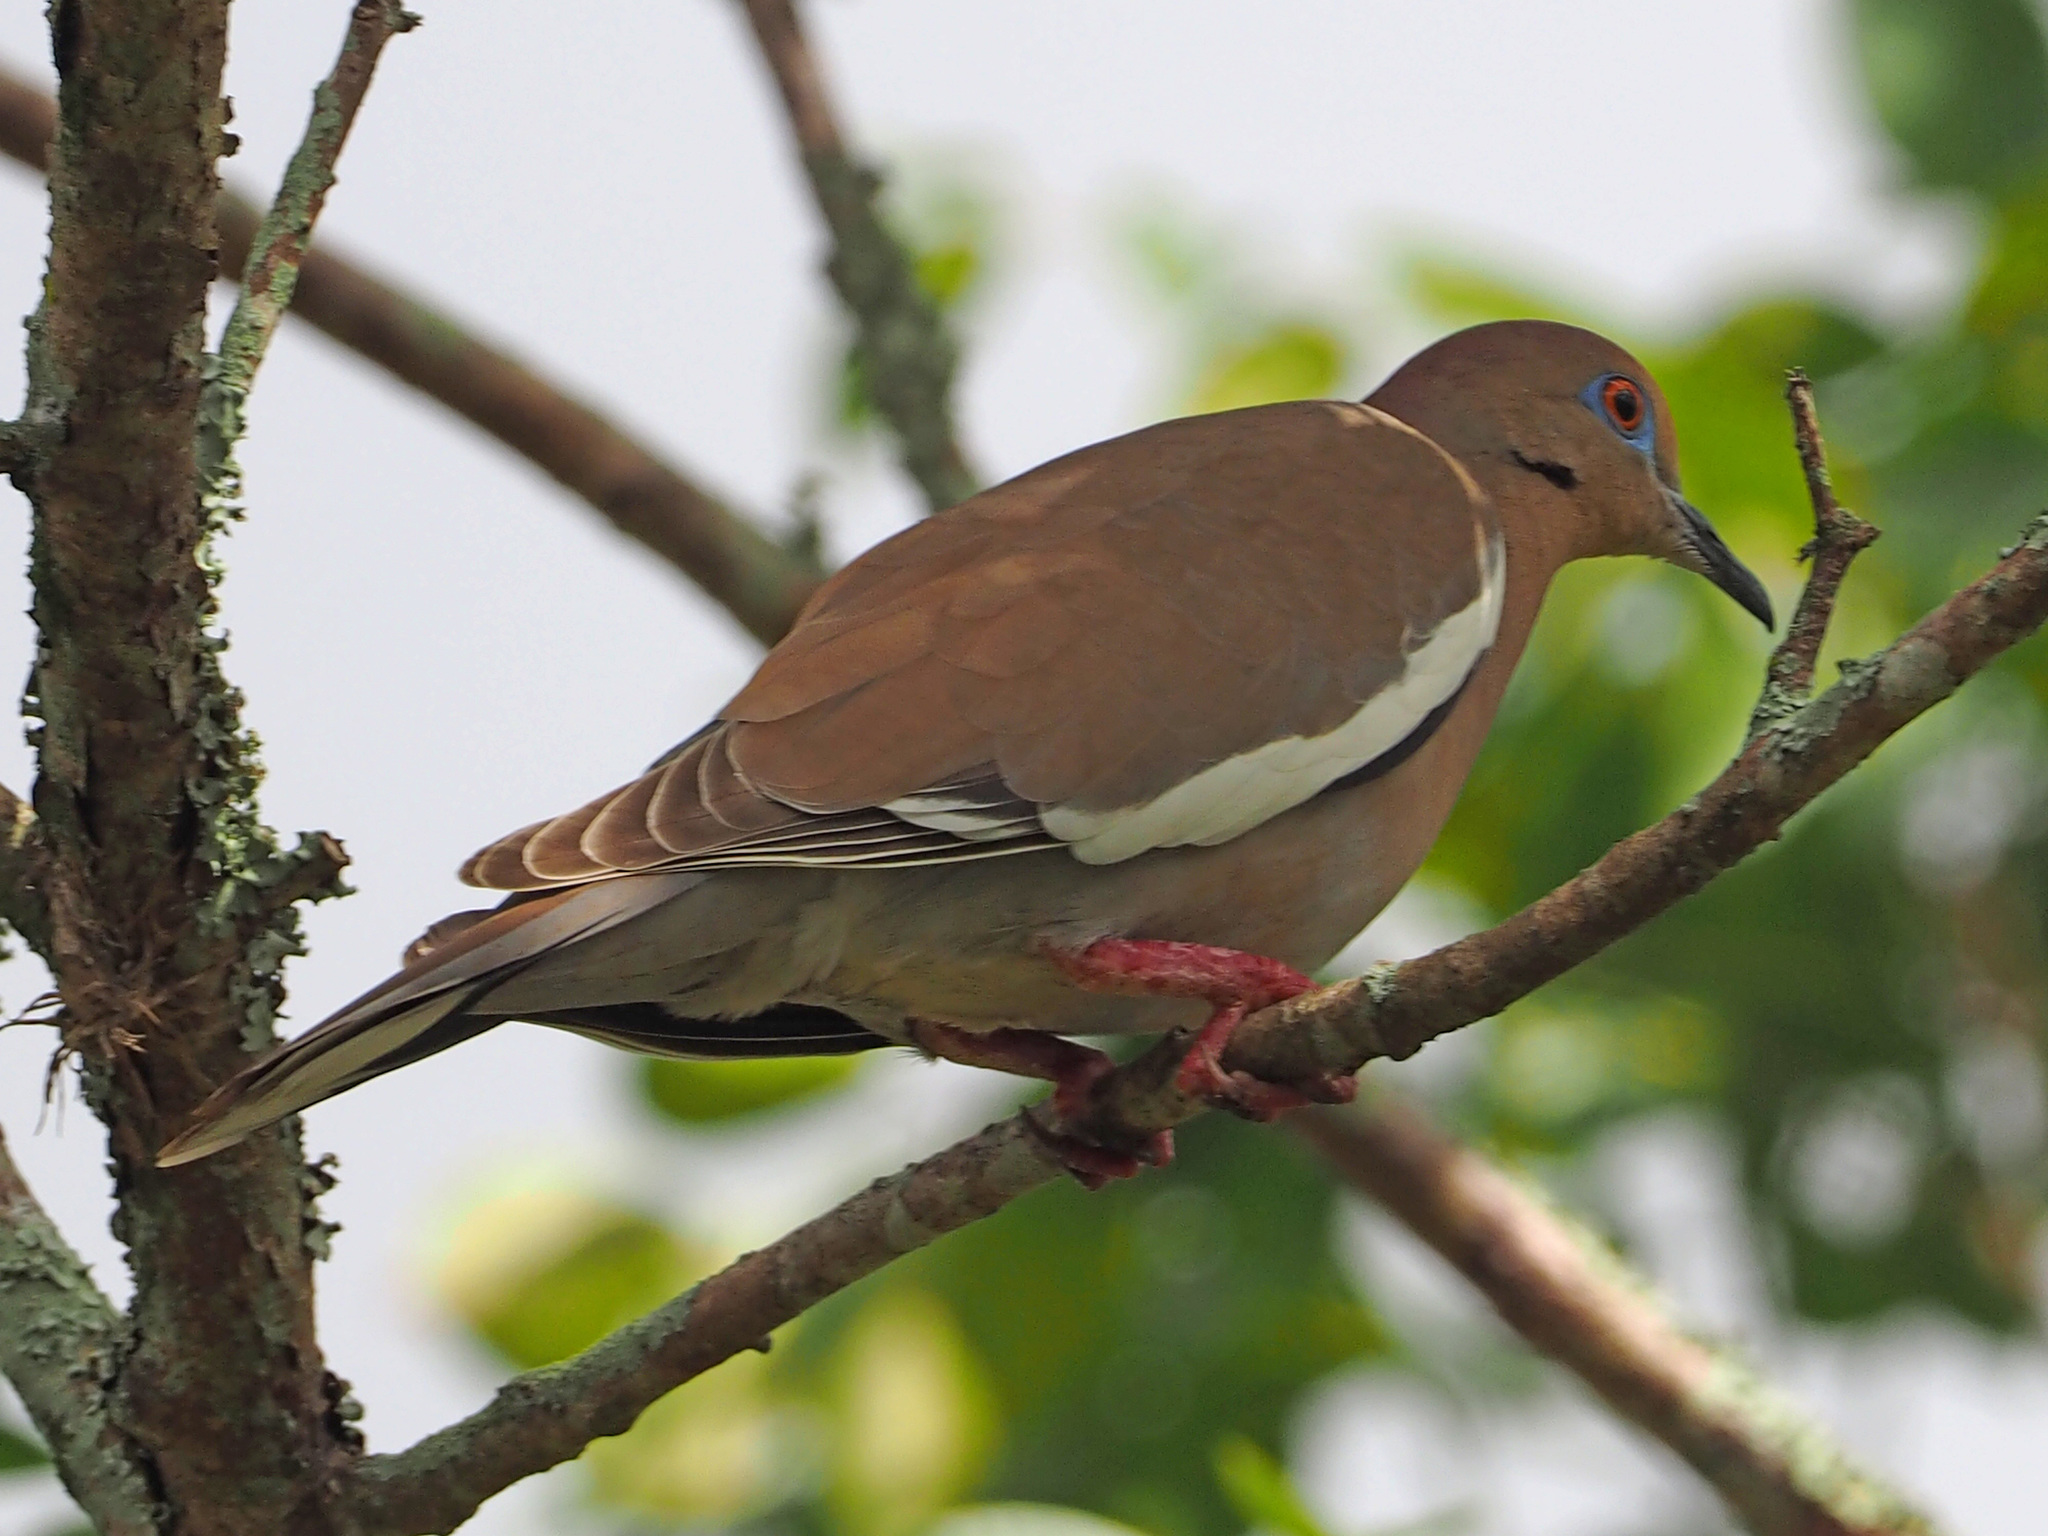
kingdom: Animalia
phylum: Chordata
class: Aves
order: Columbiformes
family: Columbidae
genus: Zenaida
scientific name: Zenaida asiatica
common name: White-winged dove
